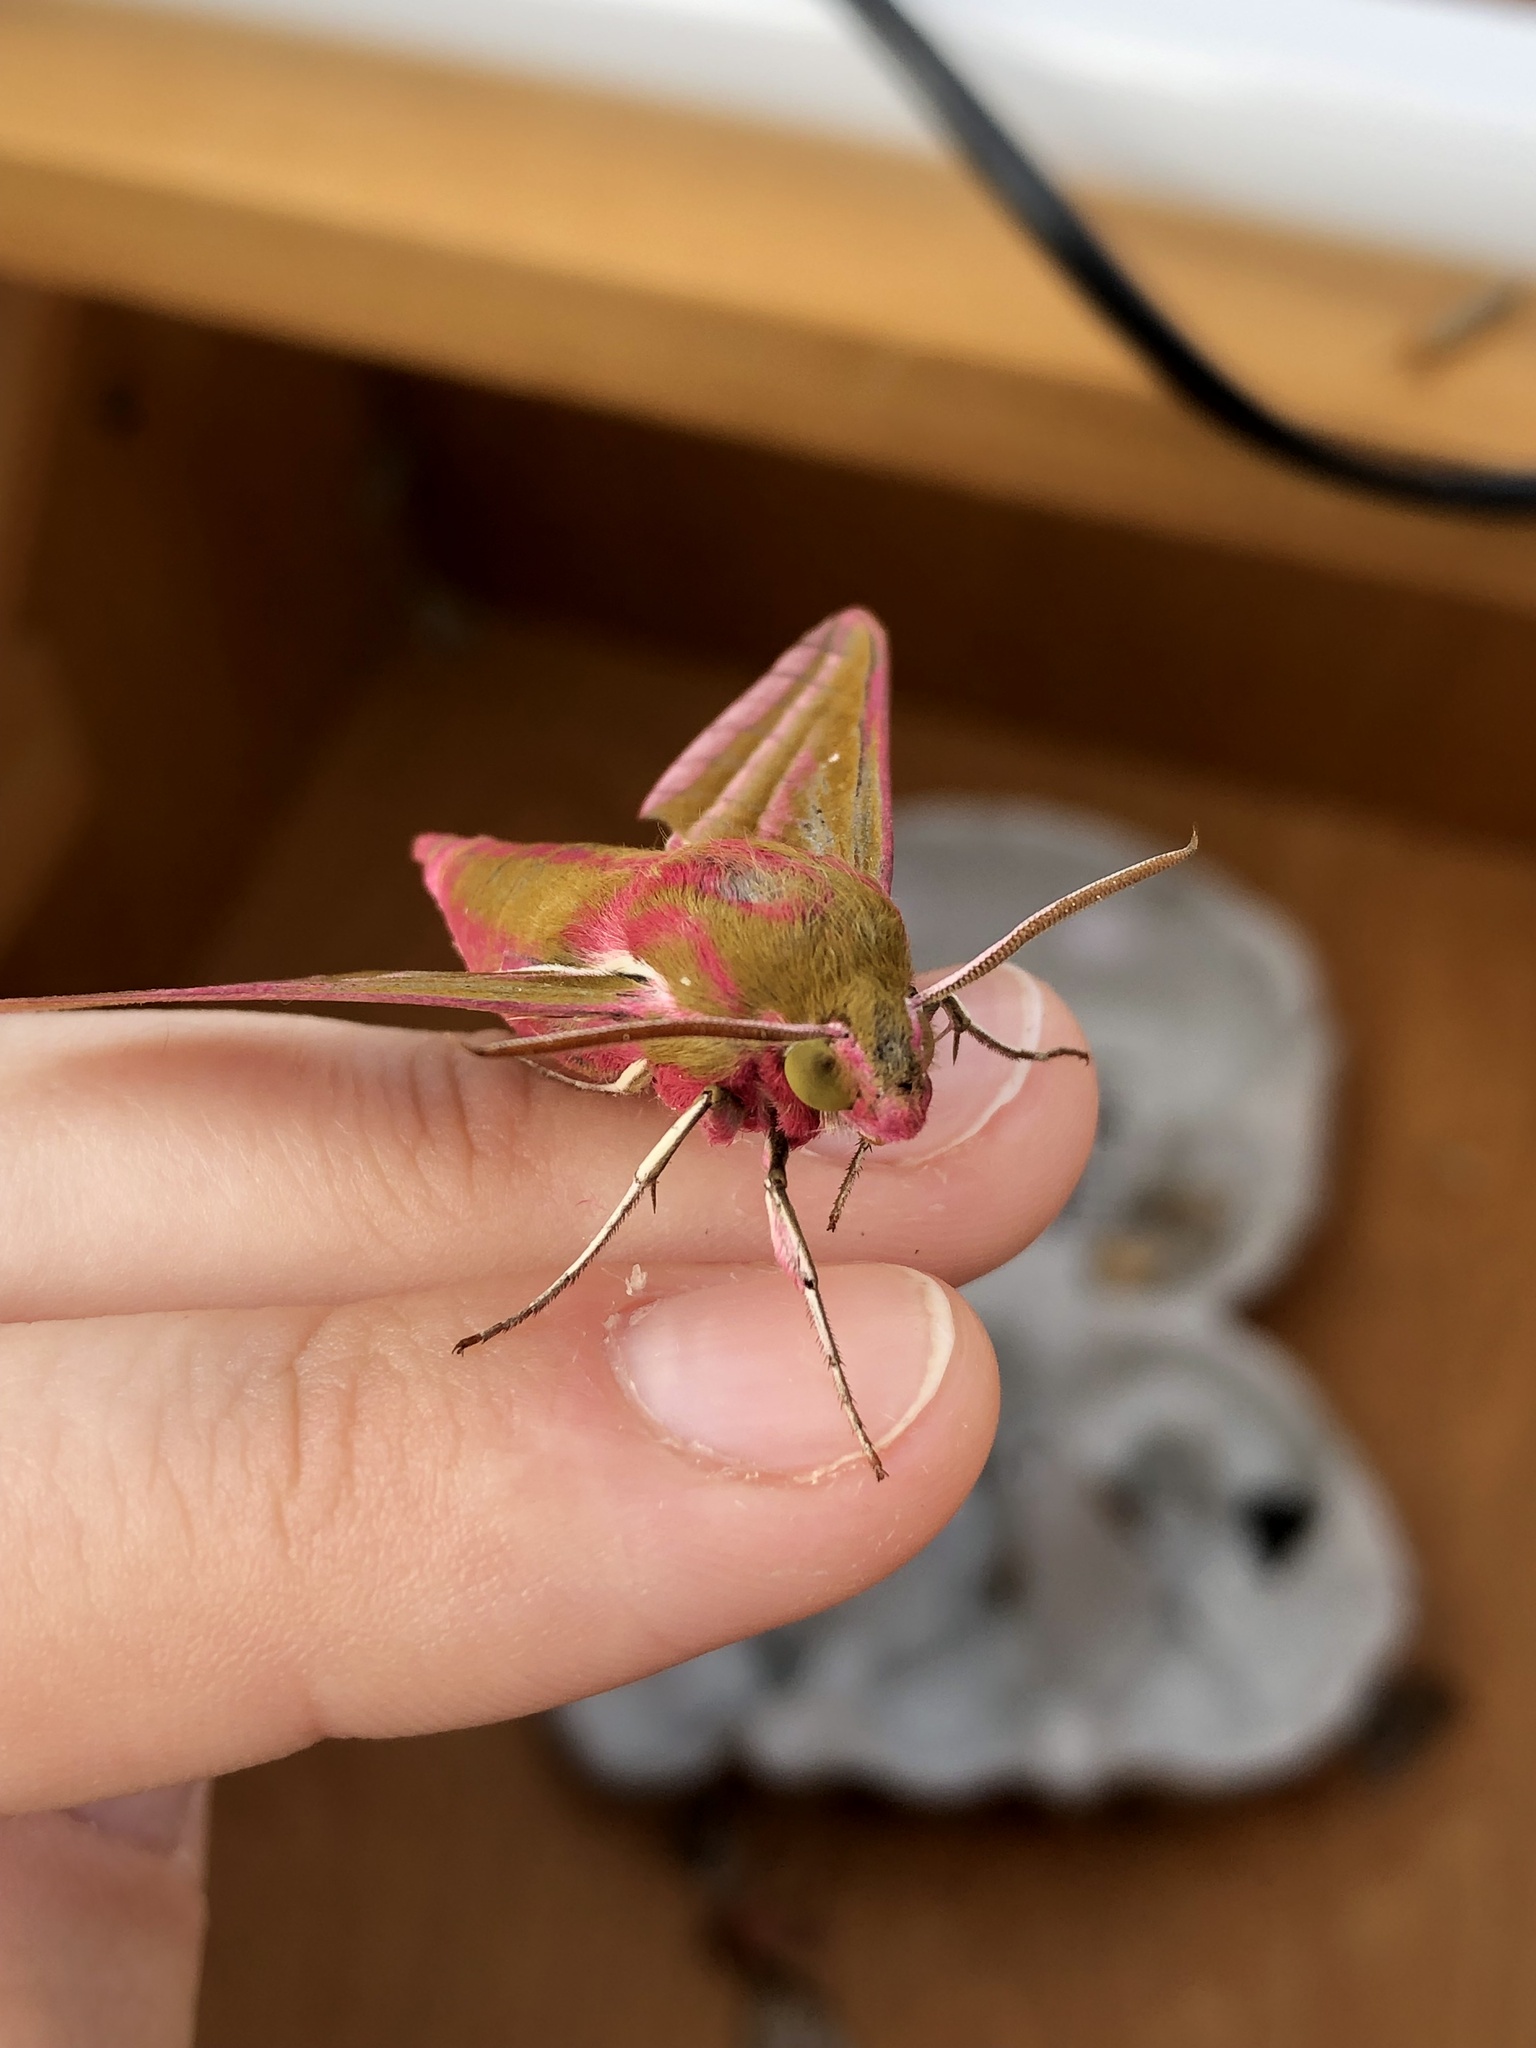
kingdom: Animalia
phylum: Arthropoda
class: Insecta
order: Lepidoptera
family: Sphingidae
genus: Deilephila
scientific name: Deilephila elpenor
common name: Elephant hawk-moth
